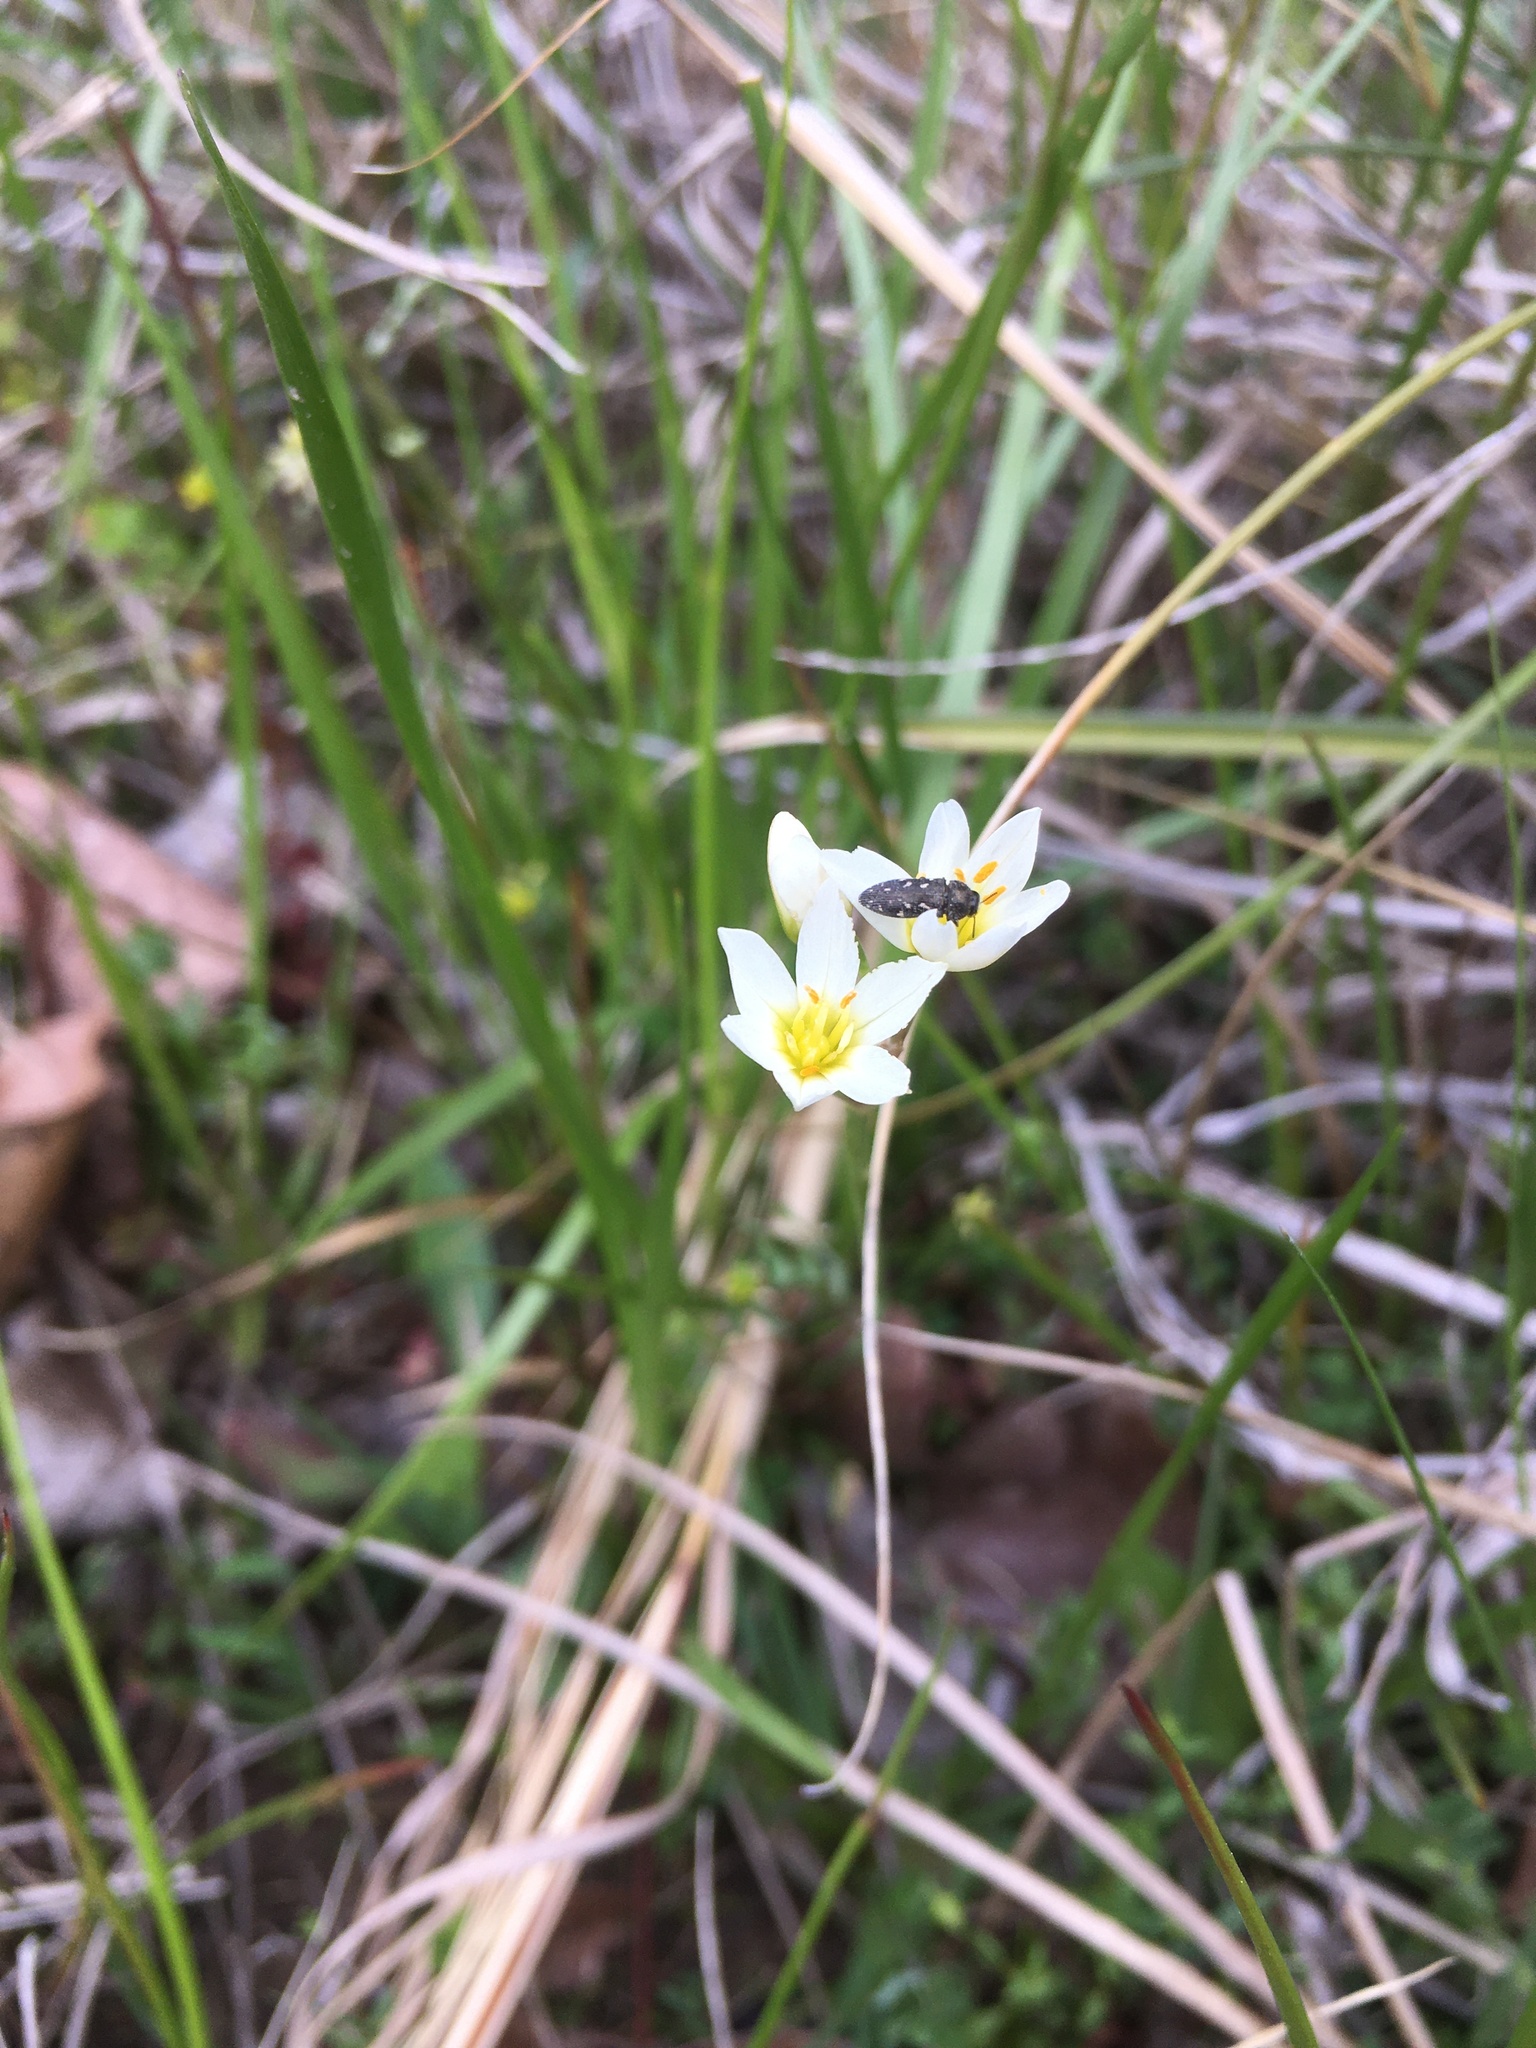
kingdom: Plantae
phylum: Tracheophyta
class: Liliopsida
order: Asparagales
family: Amaryllidaceae
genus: Nothoscordum
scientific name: Nothoscordum bivalve
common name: Crow-poison
